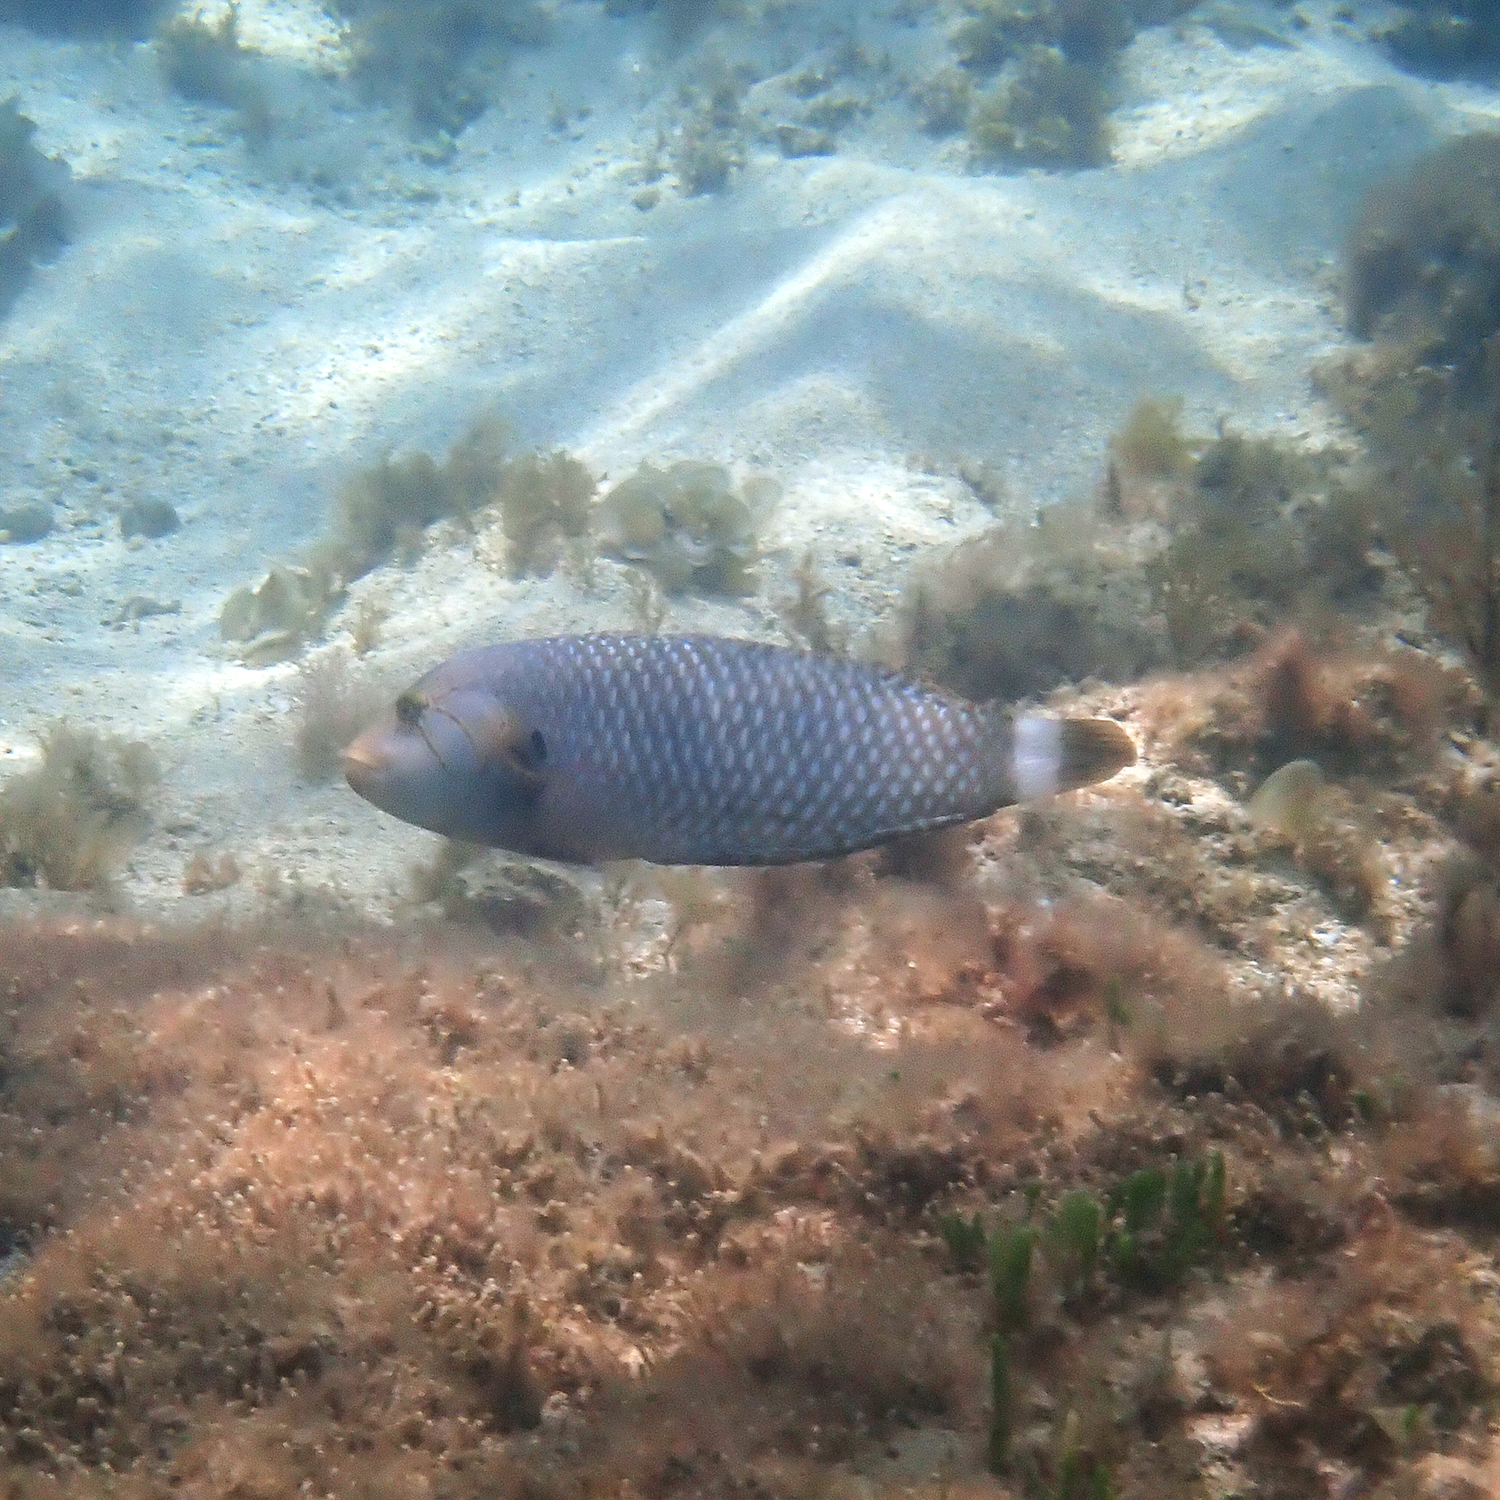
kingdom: Animalia
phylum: Chordata
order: Perciformes
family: Labridae
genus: Novaculichthys
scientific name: Novaculichthys taeniourus
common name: Rockmover wrasse
